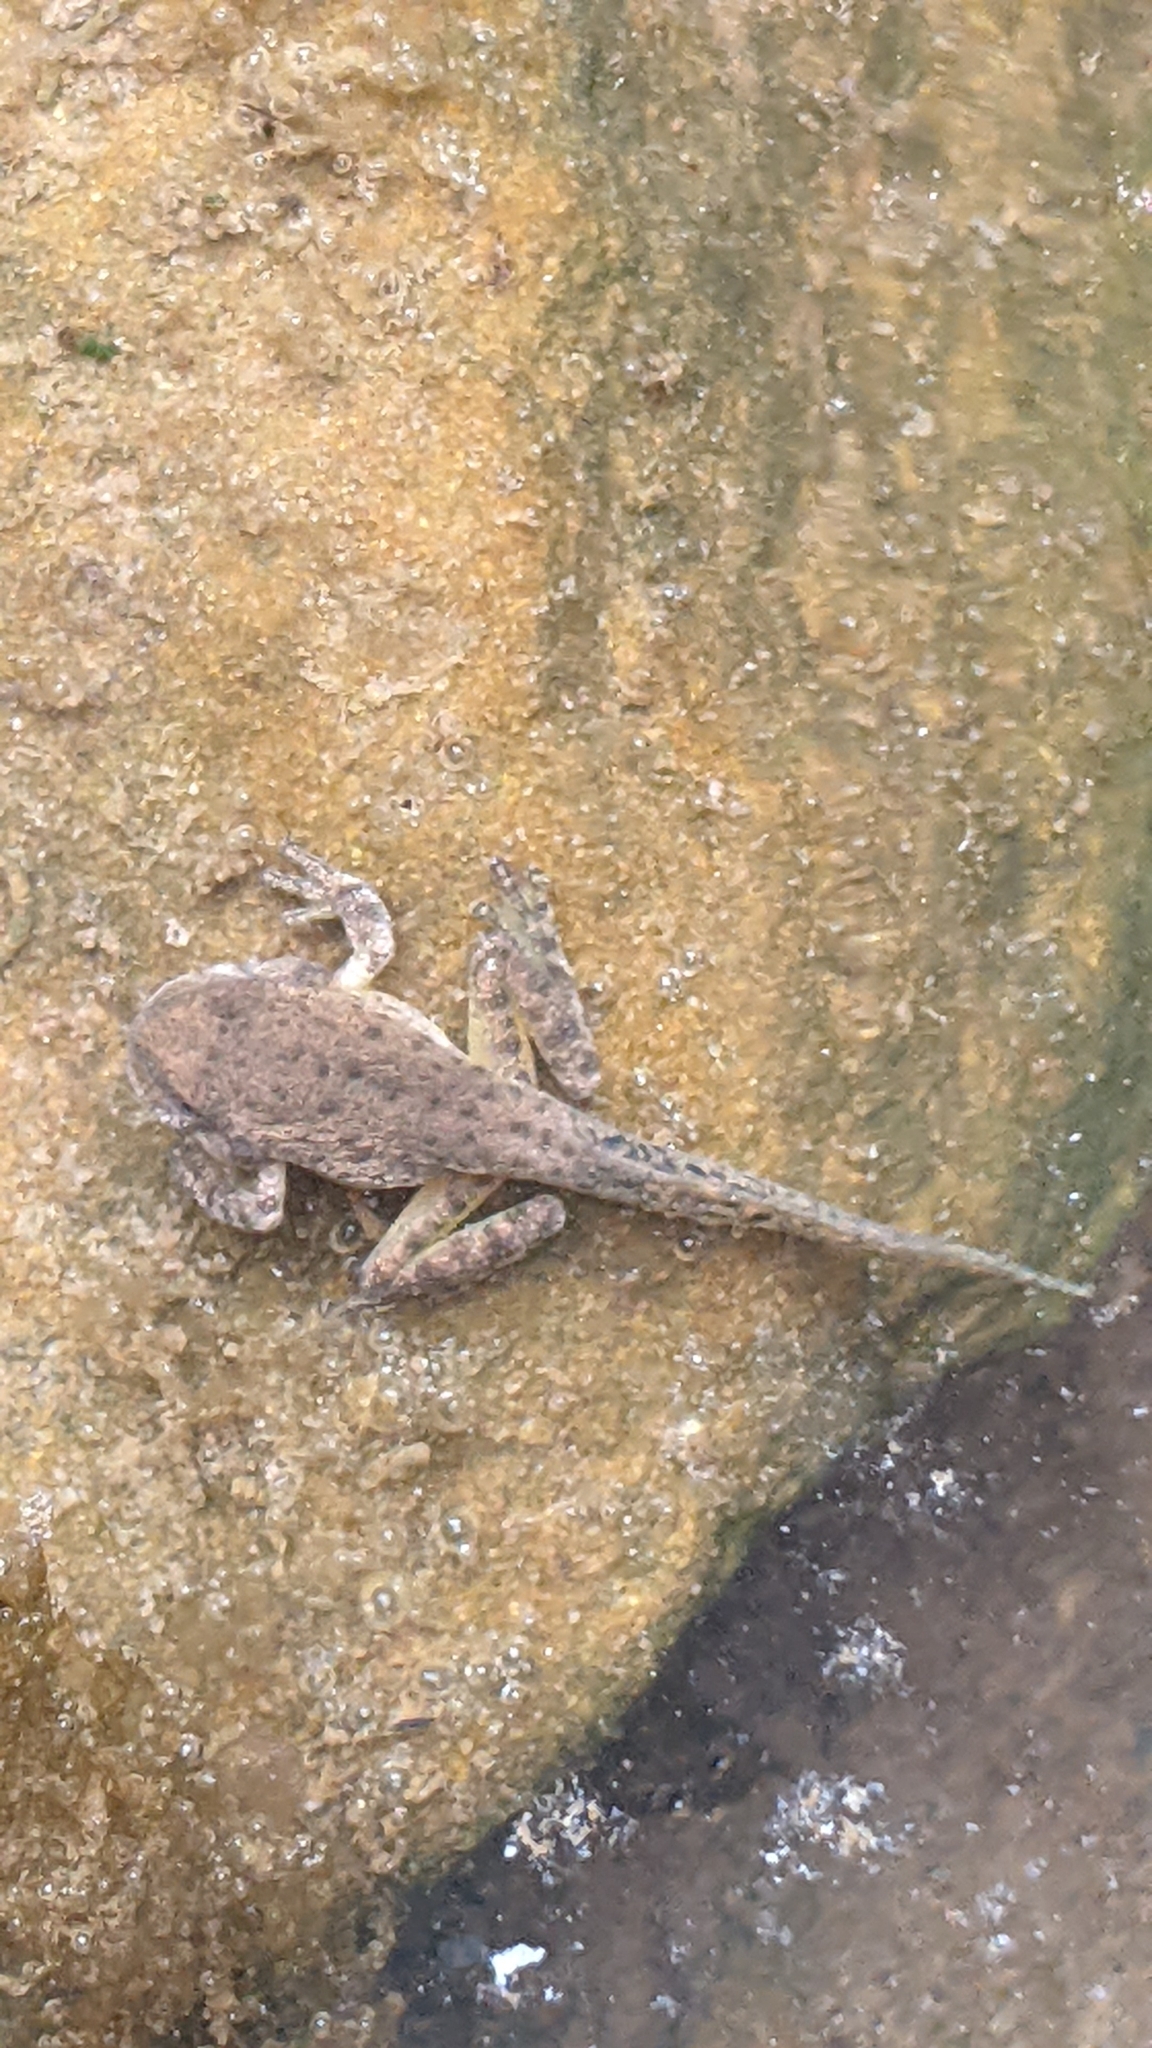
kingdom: Animalia
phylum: Chordata
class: Amphibia
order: Anura
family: Hylidae
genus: Dryophytes
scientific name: Dryophytes arenicolor
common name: Canyon treefrog
